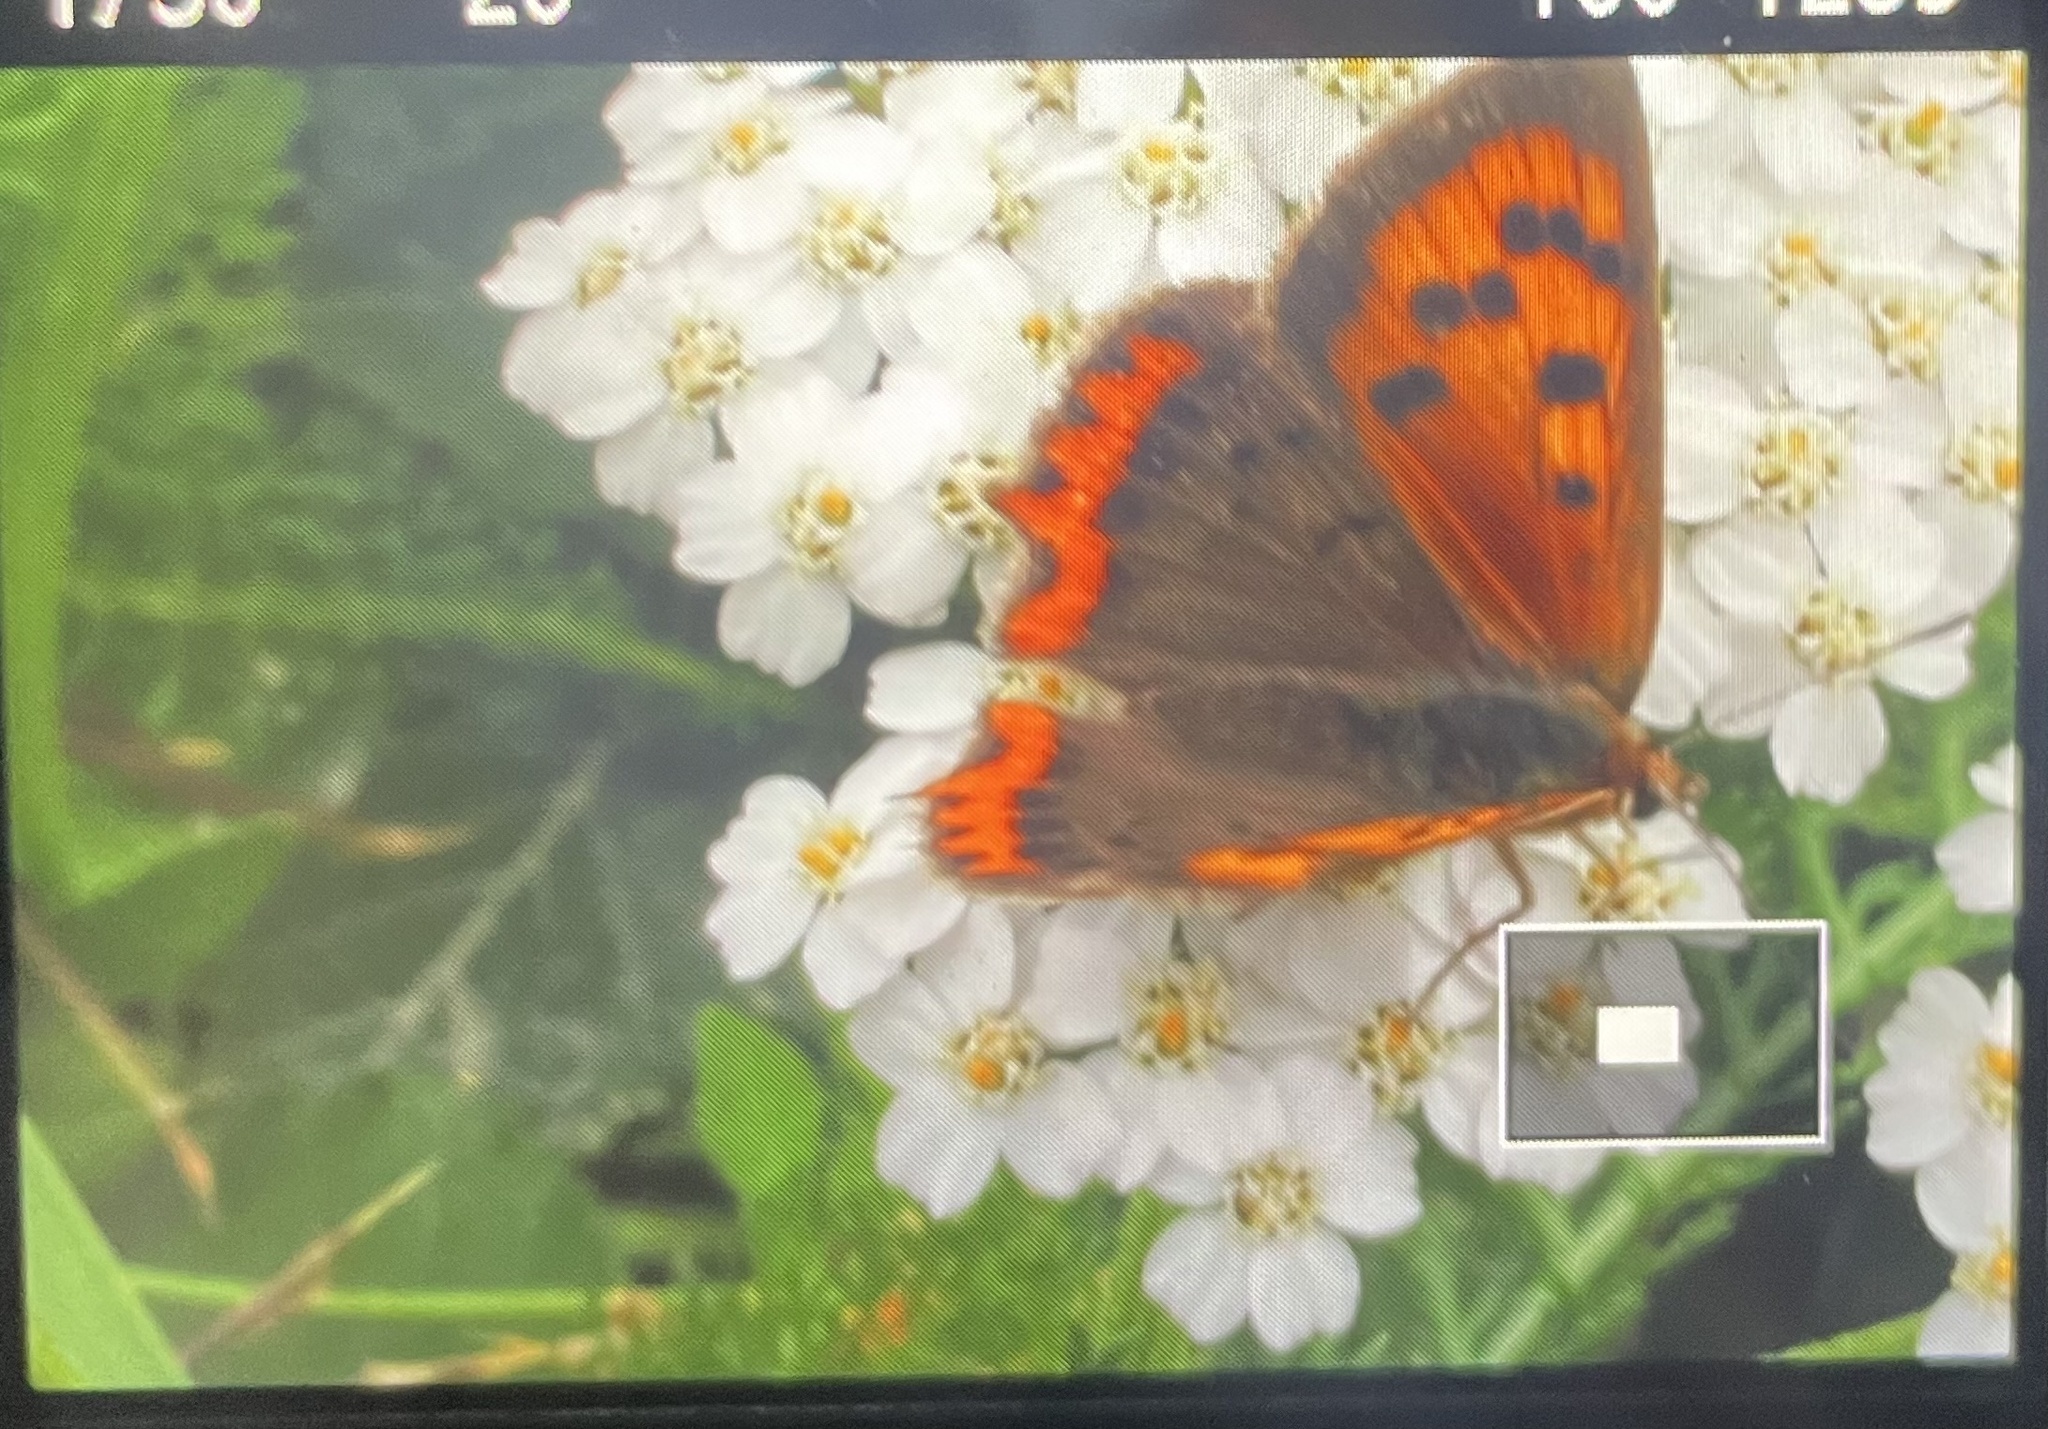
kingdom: Animalia
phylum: Arthropoda
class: Insecta
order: Lepidoptera
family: Lycaenidae
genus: Lycaena
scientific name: Lycaena phlaeas
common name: Small copper
